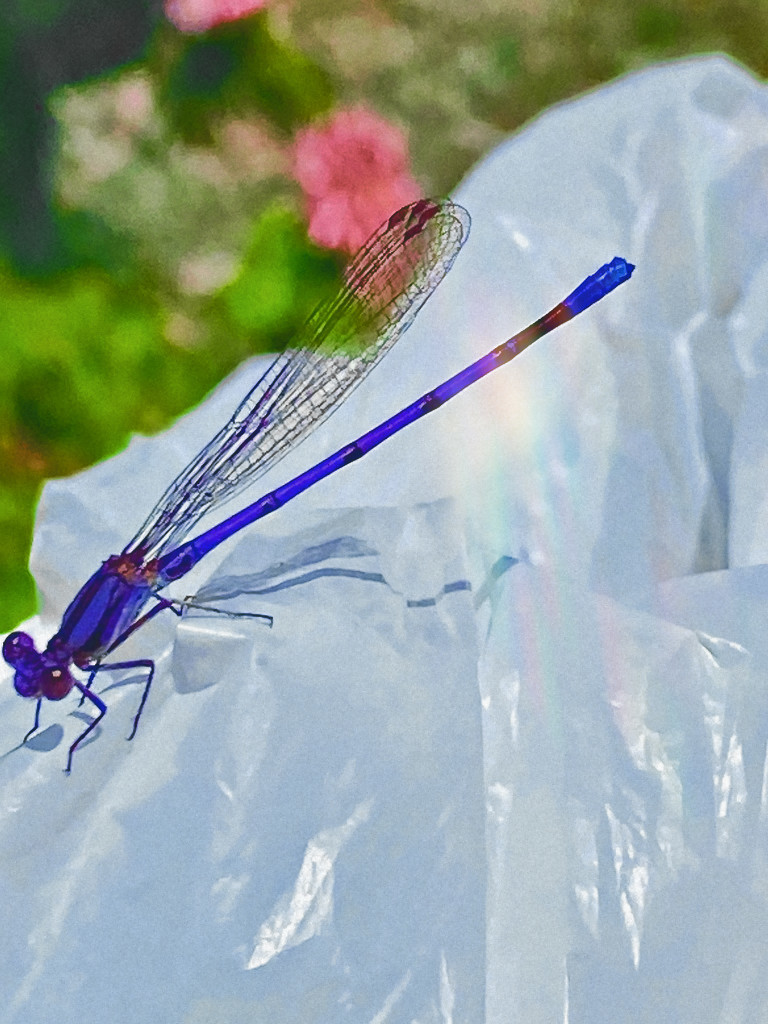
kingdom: Animalia
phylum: Arthropoda
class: Insecta
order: Odonata
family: Coenagrionidae
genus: Argia
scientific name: Argia fumipennis
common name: Variable dancer
